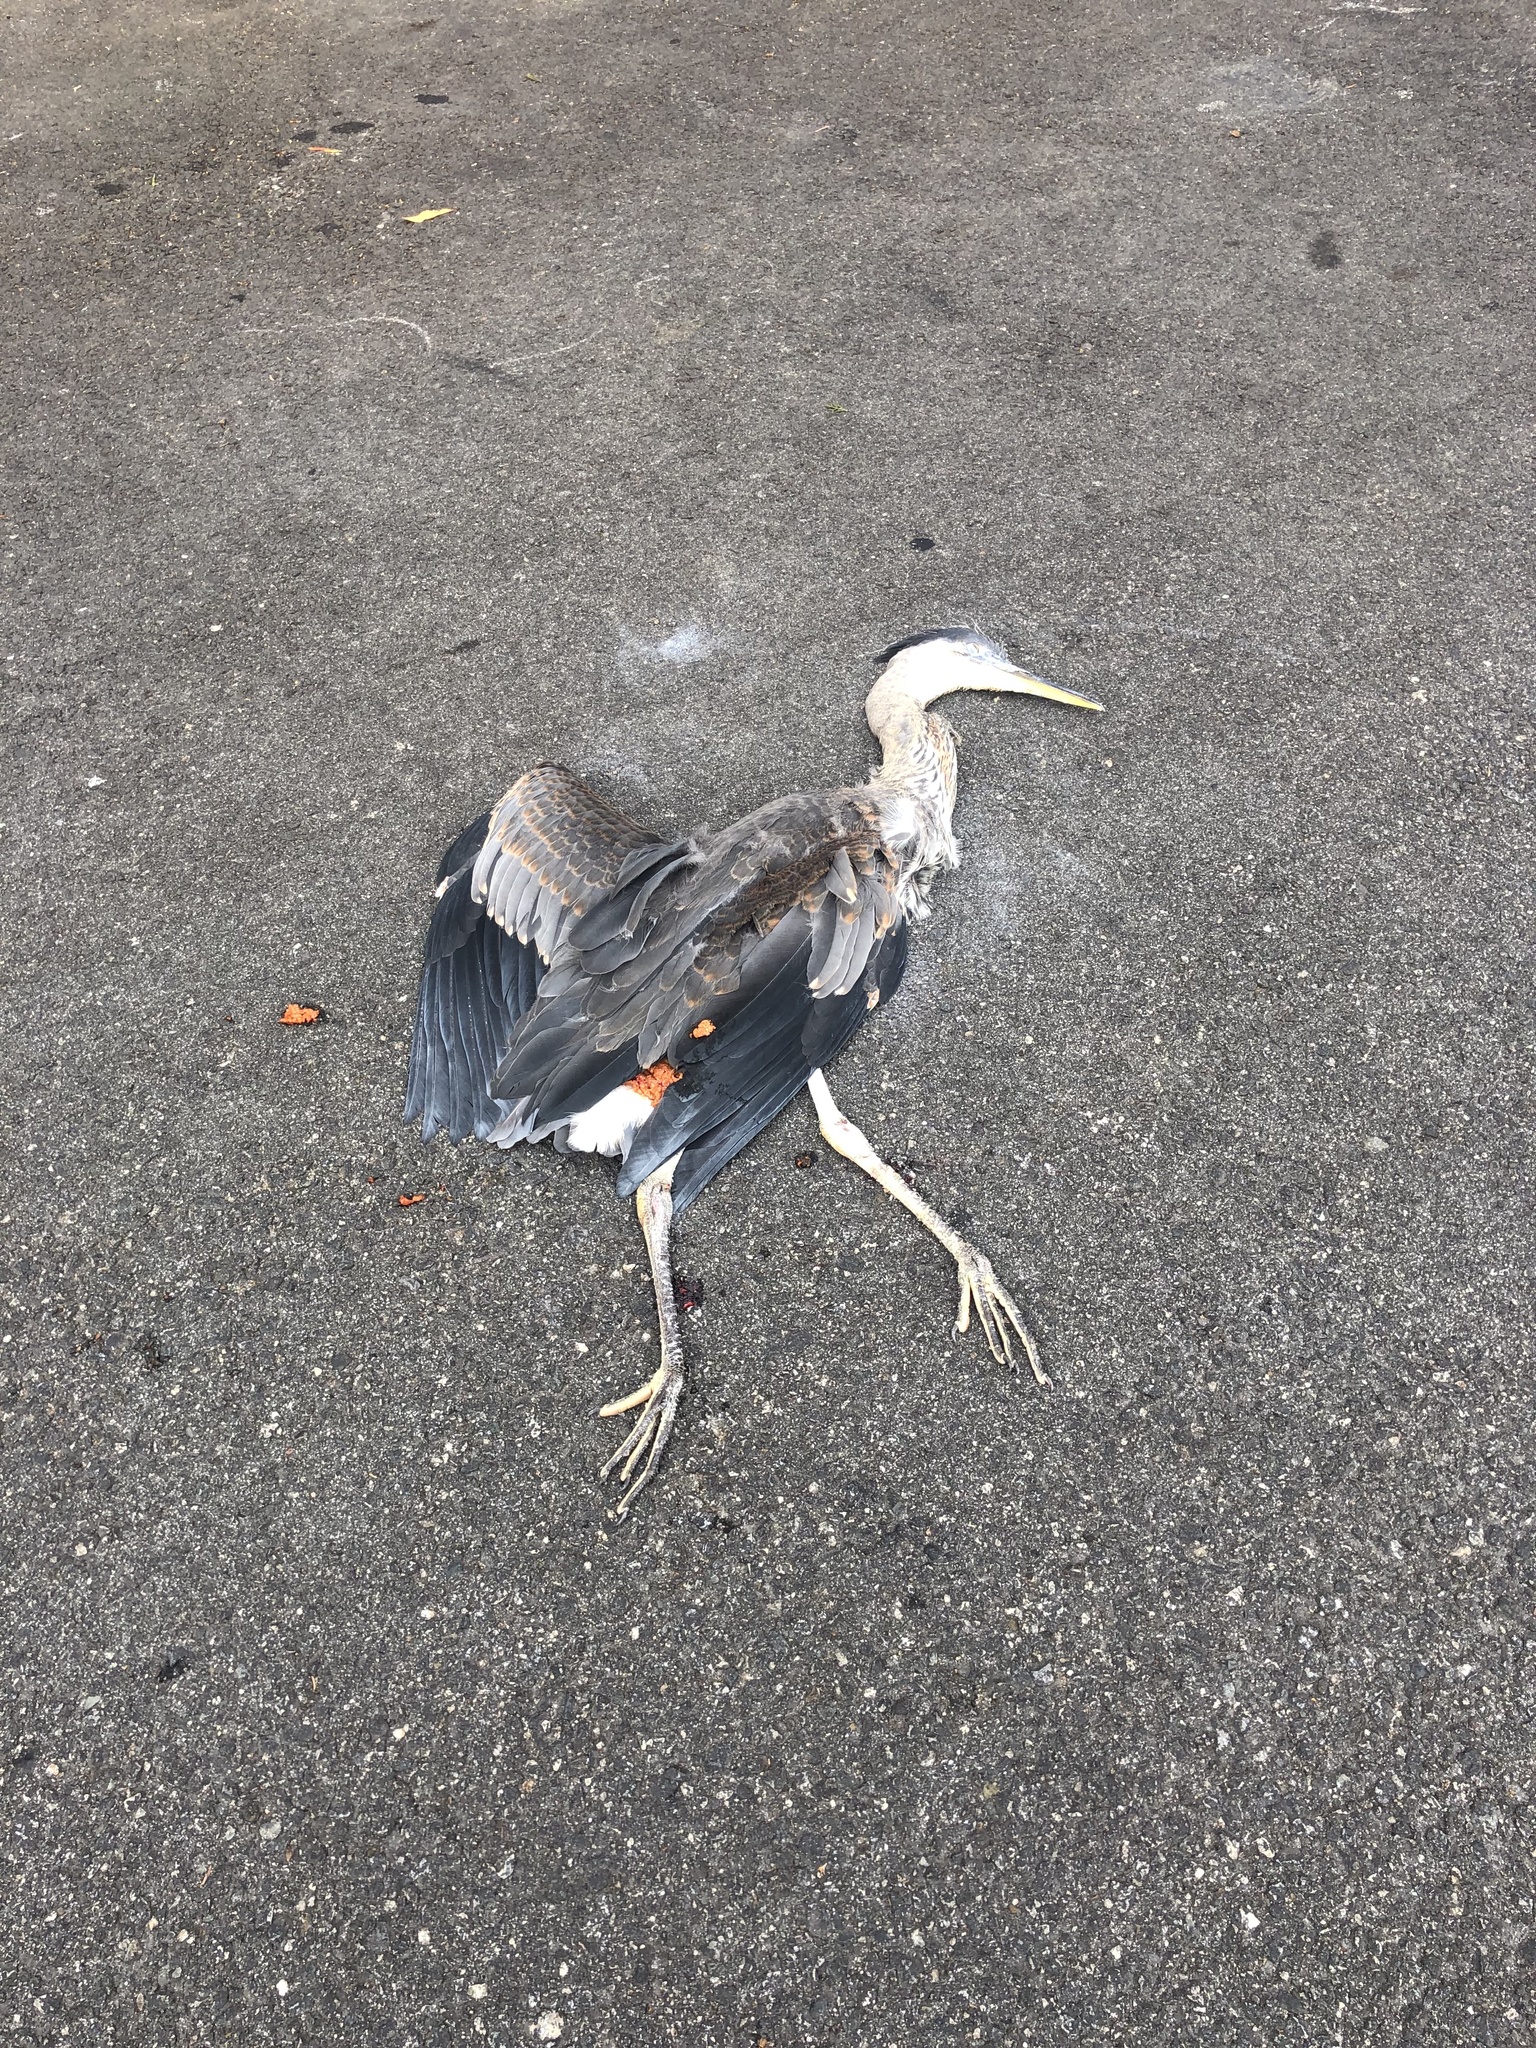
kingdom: Animalia
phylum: Chordata
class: Aves
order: Pelecaniformes
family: Ardeidae
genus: Ardea
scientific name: Ardea herodias
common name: Great blue heron
